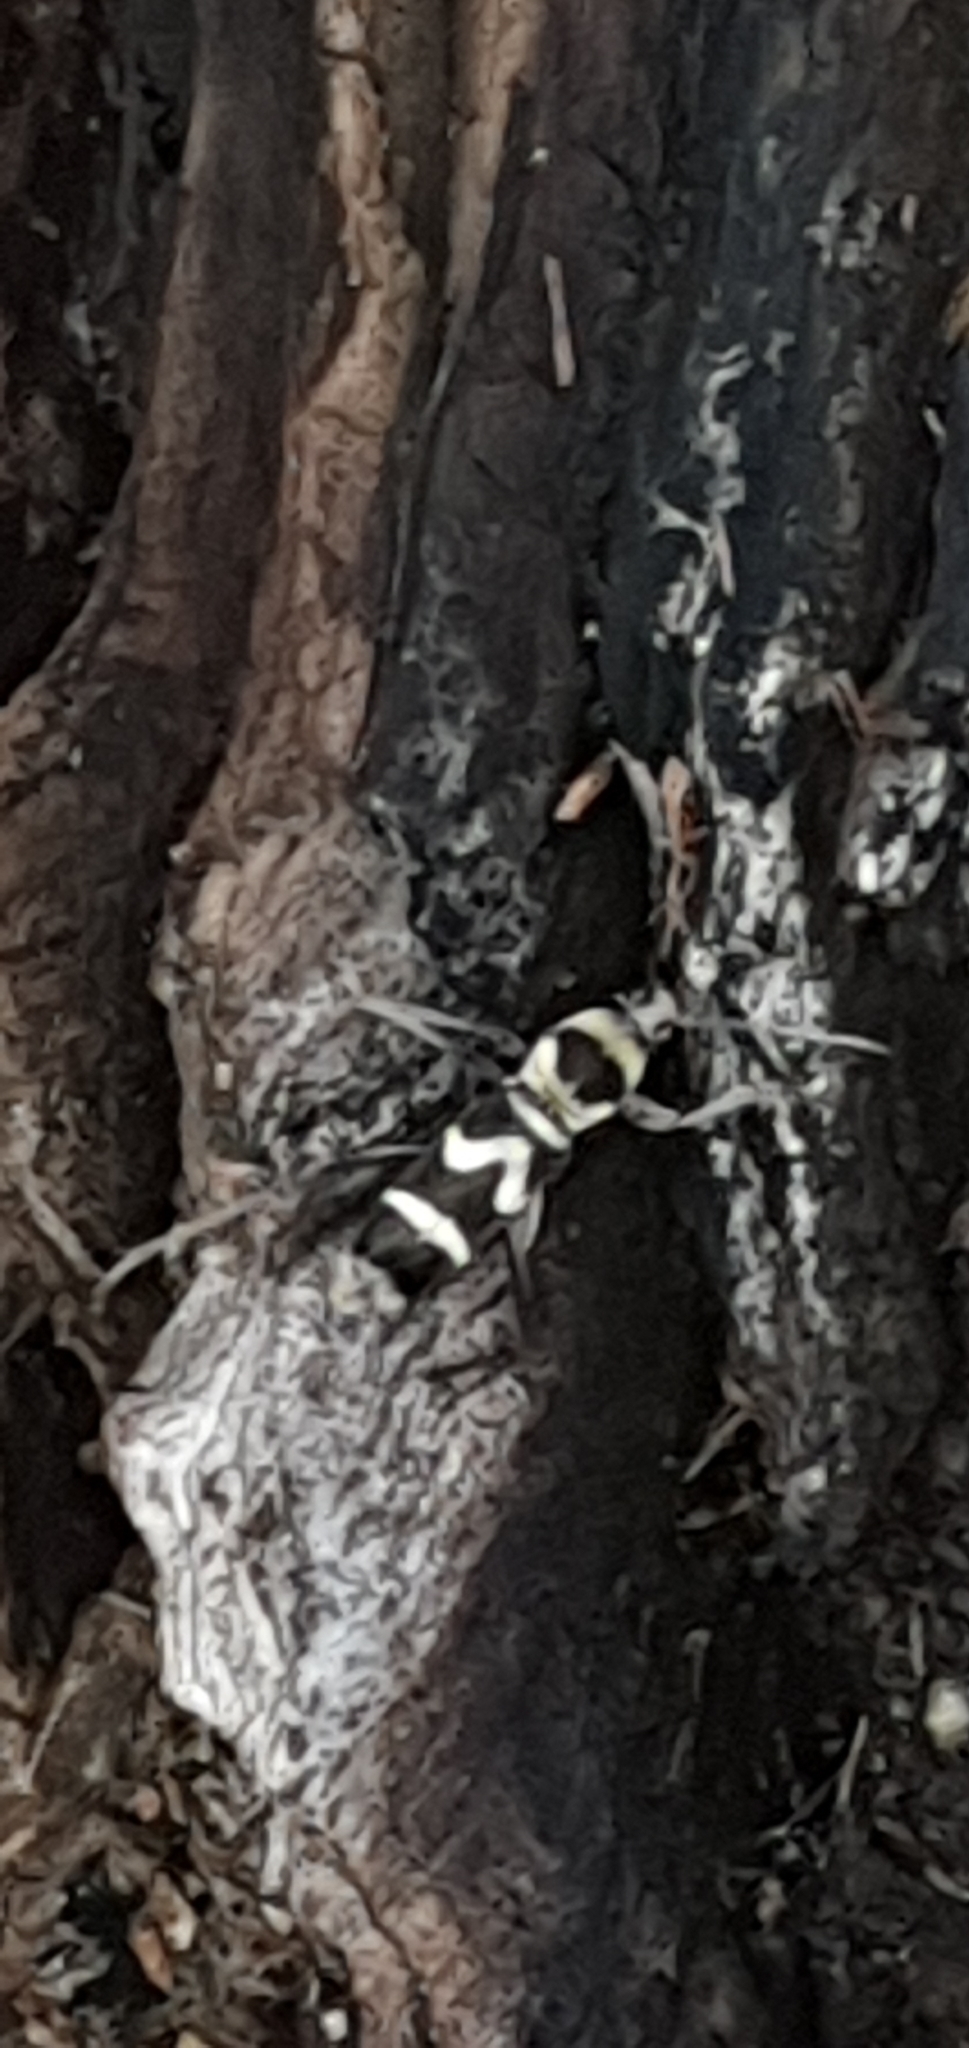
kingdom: Animalia
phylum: Arthropoda
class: Insecta
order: Coleoptera
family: Cerambycidae
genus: Clytus
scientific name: Clytus curtisi
